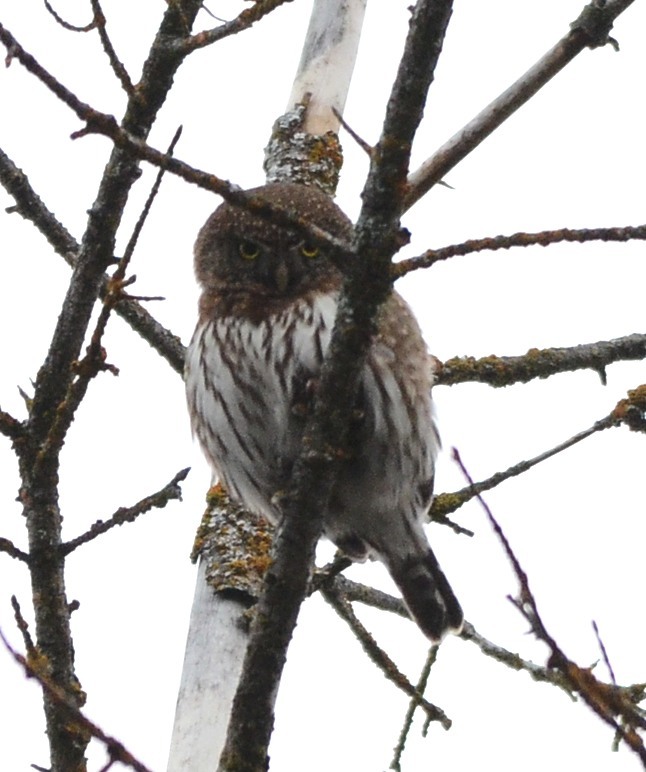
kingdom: Animalia
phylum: Chordata
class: Aves
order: Strigiformes
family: Strigidae
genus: Glaucidium
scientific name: Glaucidium gnoma
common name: Northern pygmy-owl
